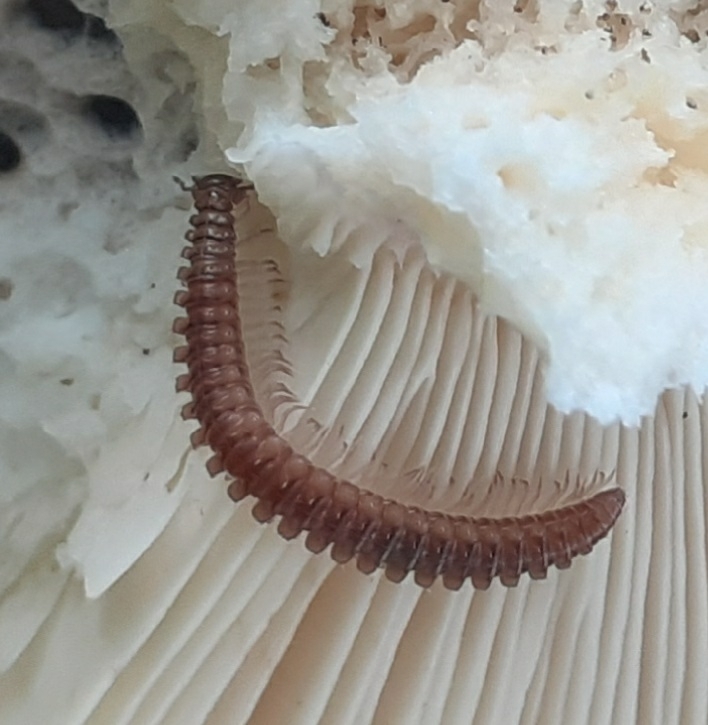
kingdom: Animalia
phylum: Arthropoda
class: Diplopoda
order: Chordeumatida
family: Craspedosomatidae
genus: Nanogona
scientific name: Nanogona polydesmoides
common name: Eyed flat-backed millipede
